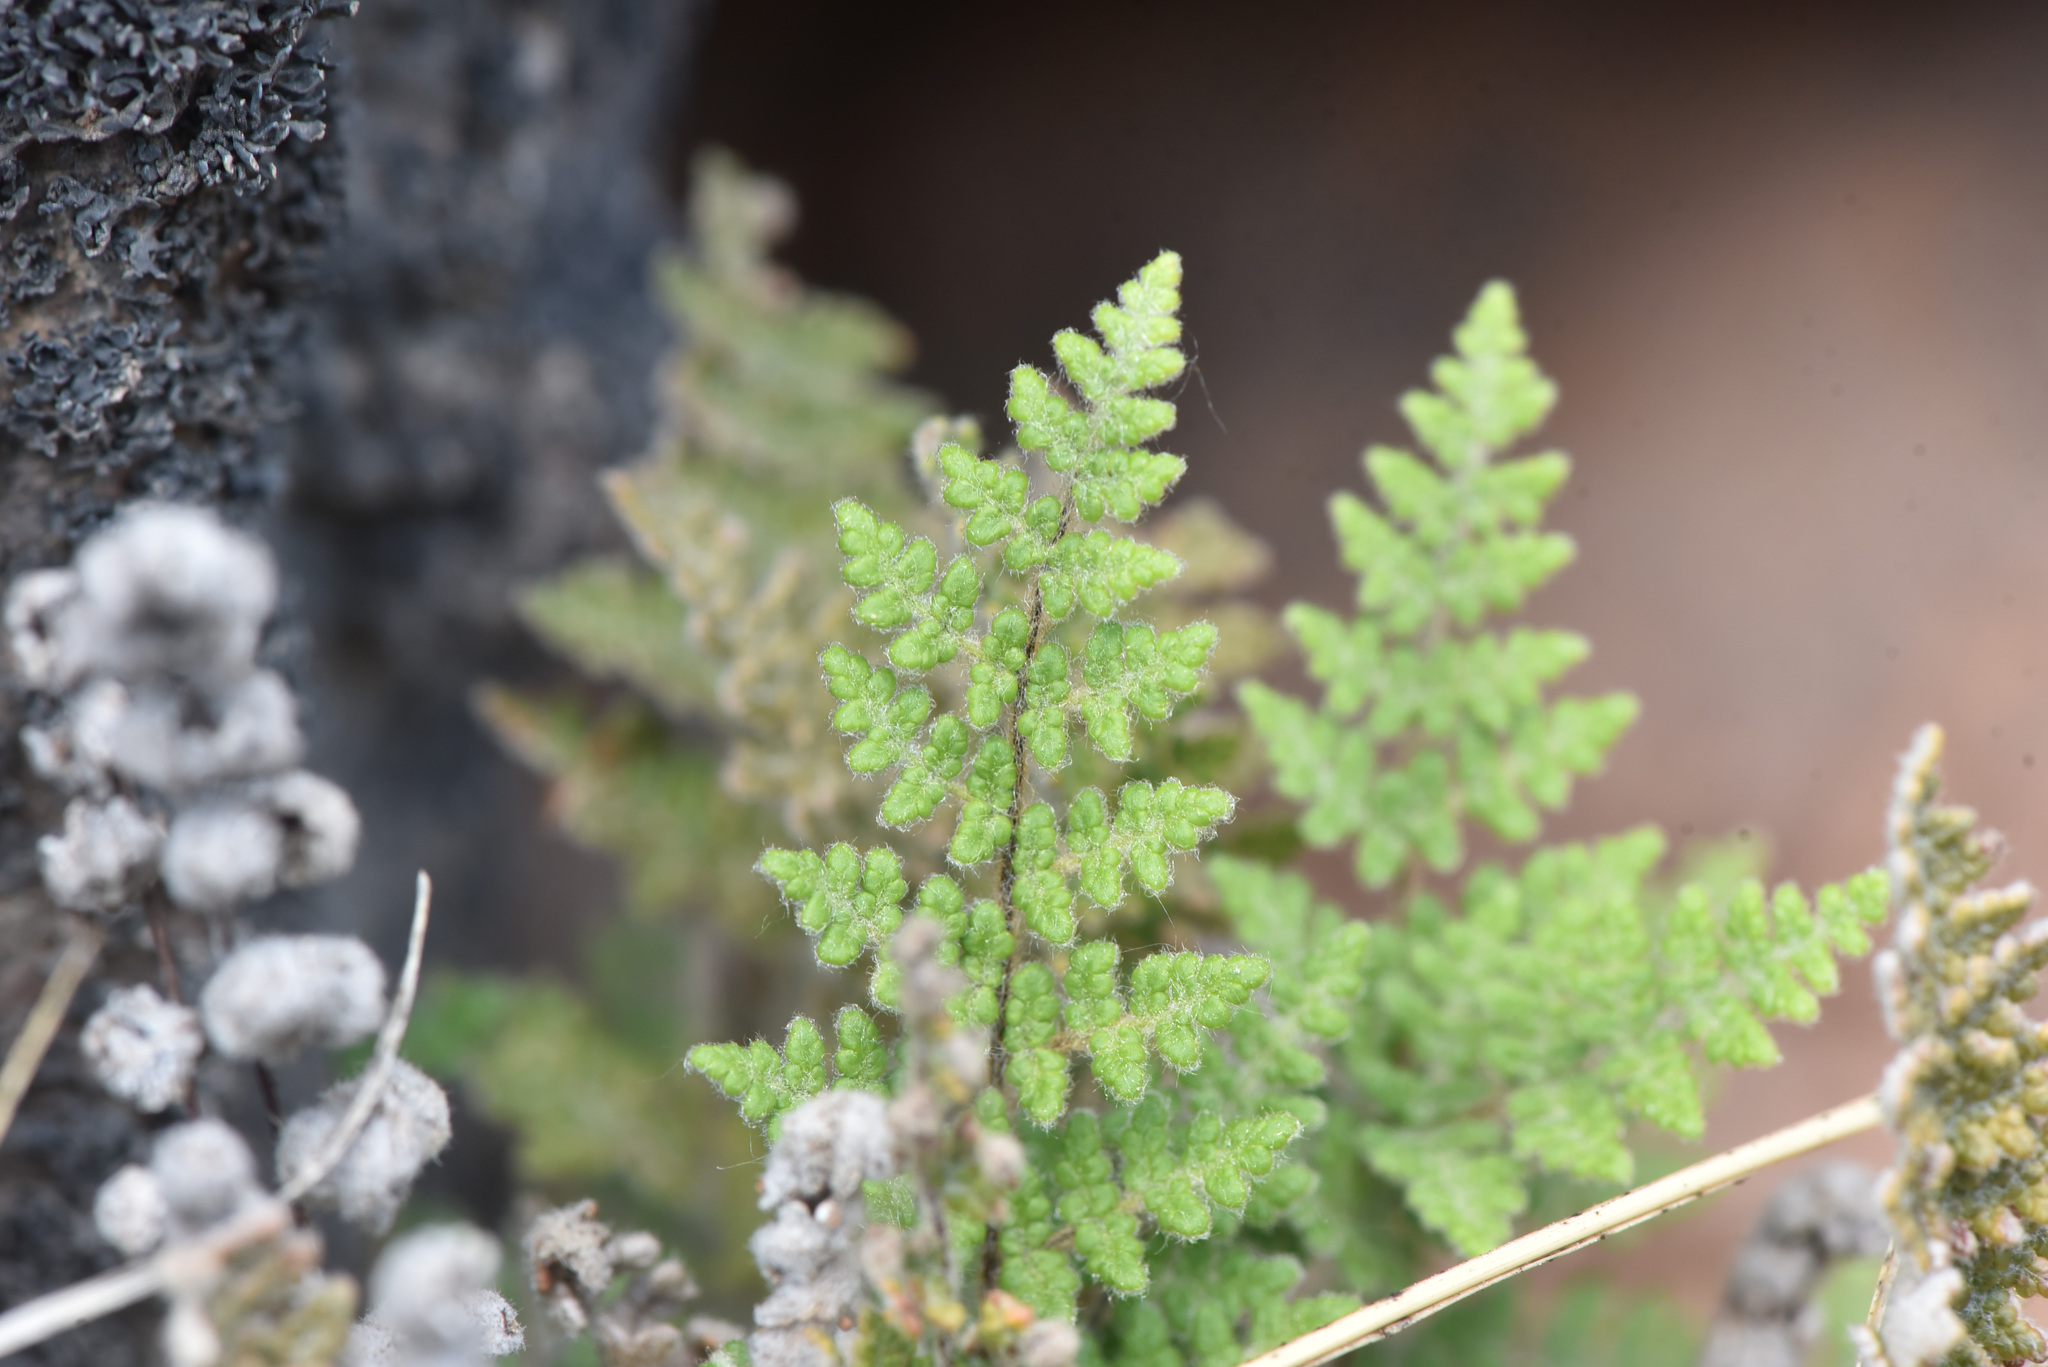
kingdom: Plantae
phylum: Tracheophyta
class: Polypodiopsida
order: Polypodiales
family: Pteridaceae
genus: Myriopteris
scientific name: Myriopteris gracilis
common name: Fee's lip fern
